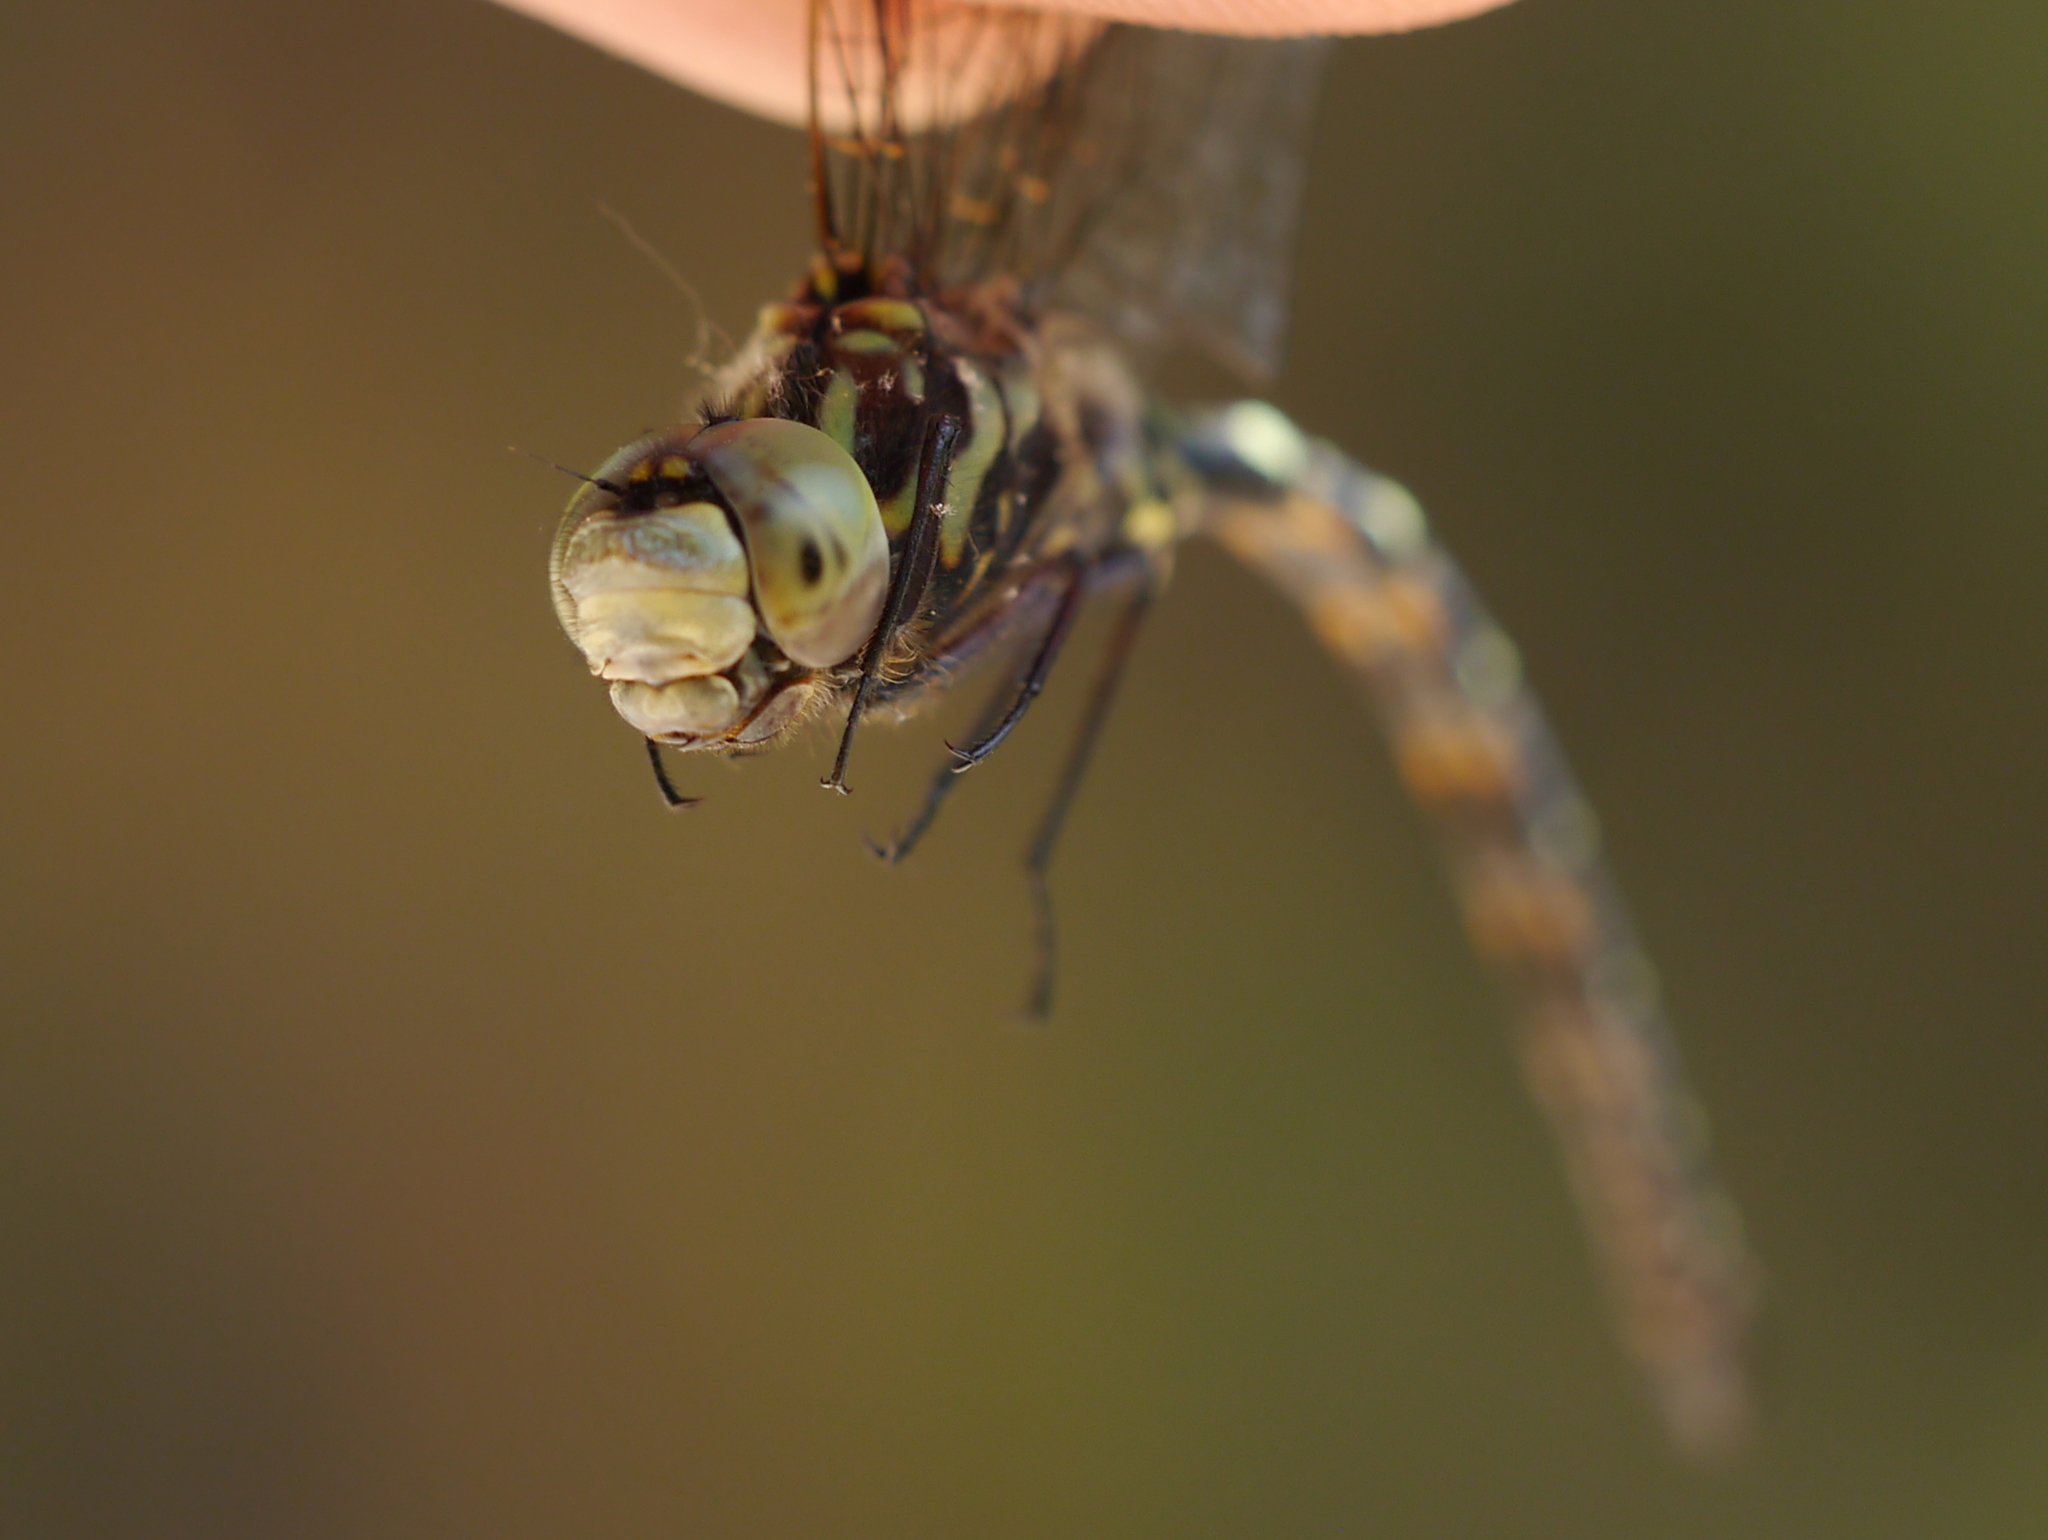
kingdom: Animalia
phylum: Arthropoda
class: Insecta
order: Odonata
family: Aeshnidae
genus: Gomphaeschna
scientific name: Gomphaeschna furcillata
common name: Harlequin darner
